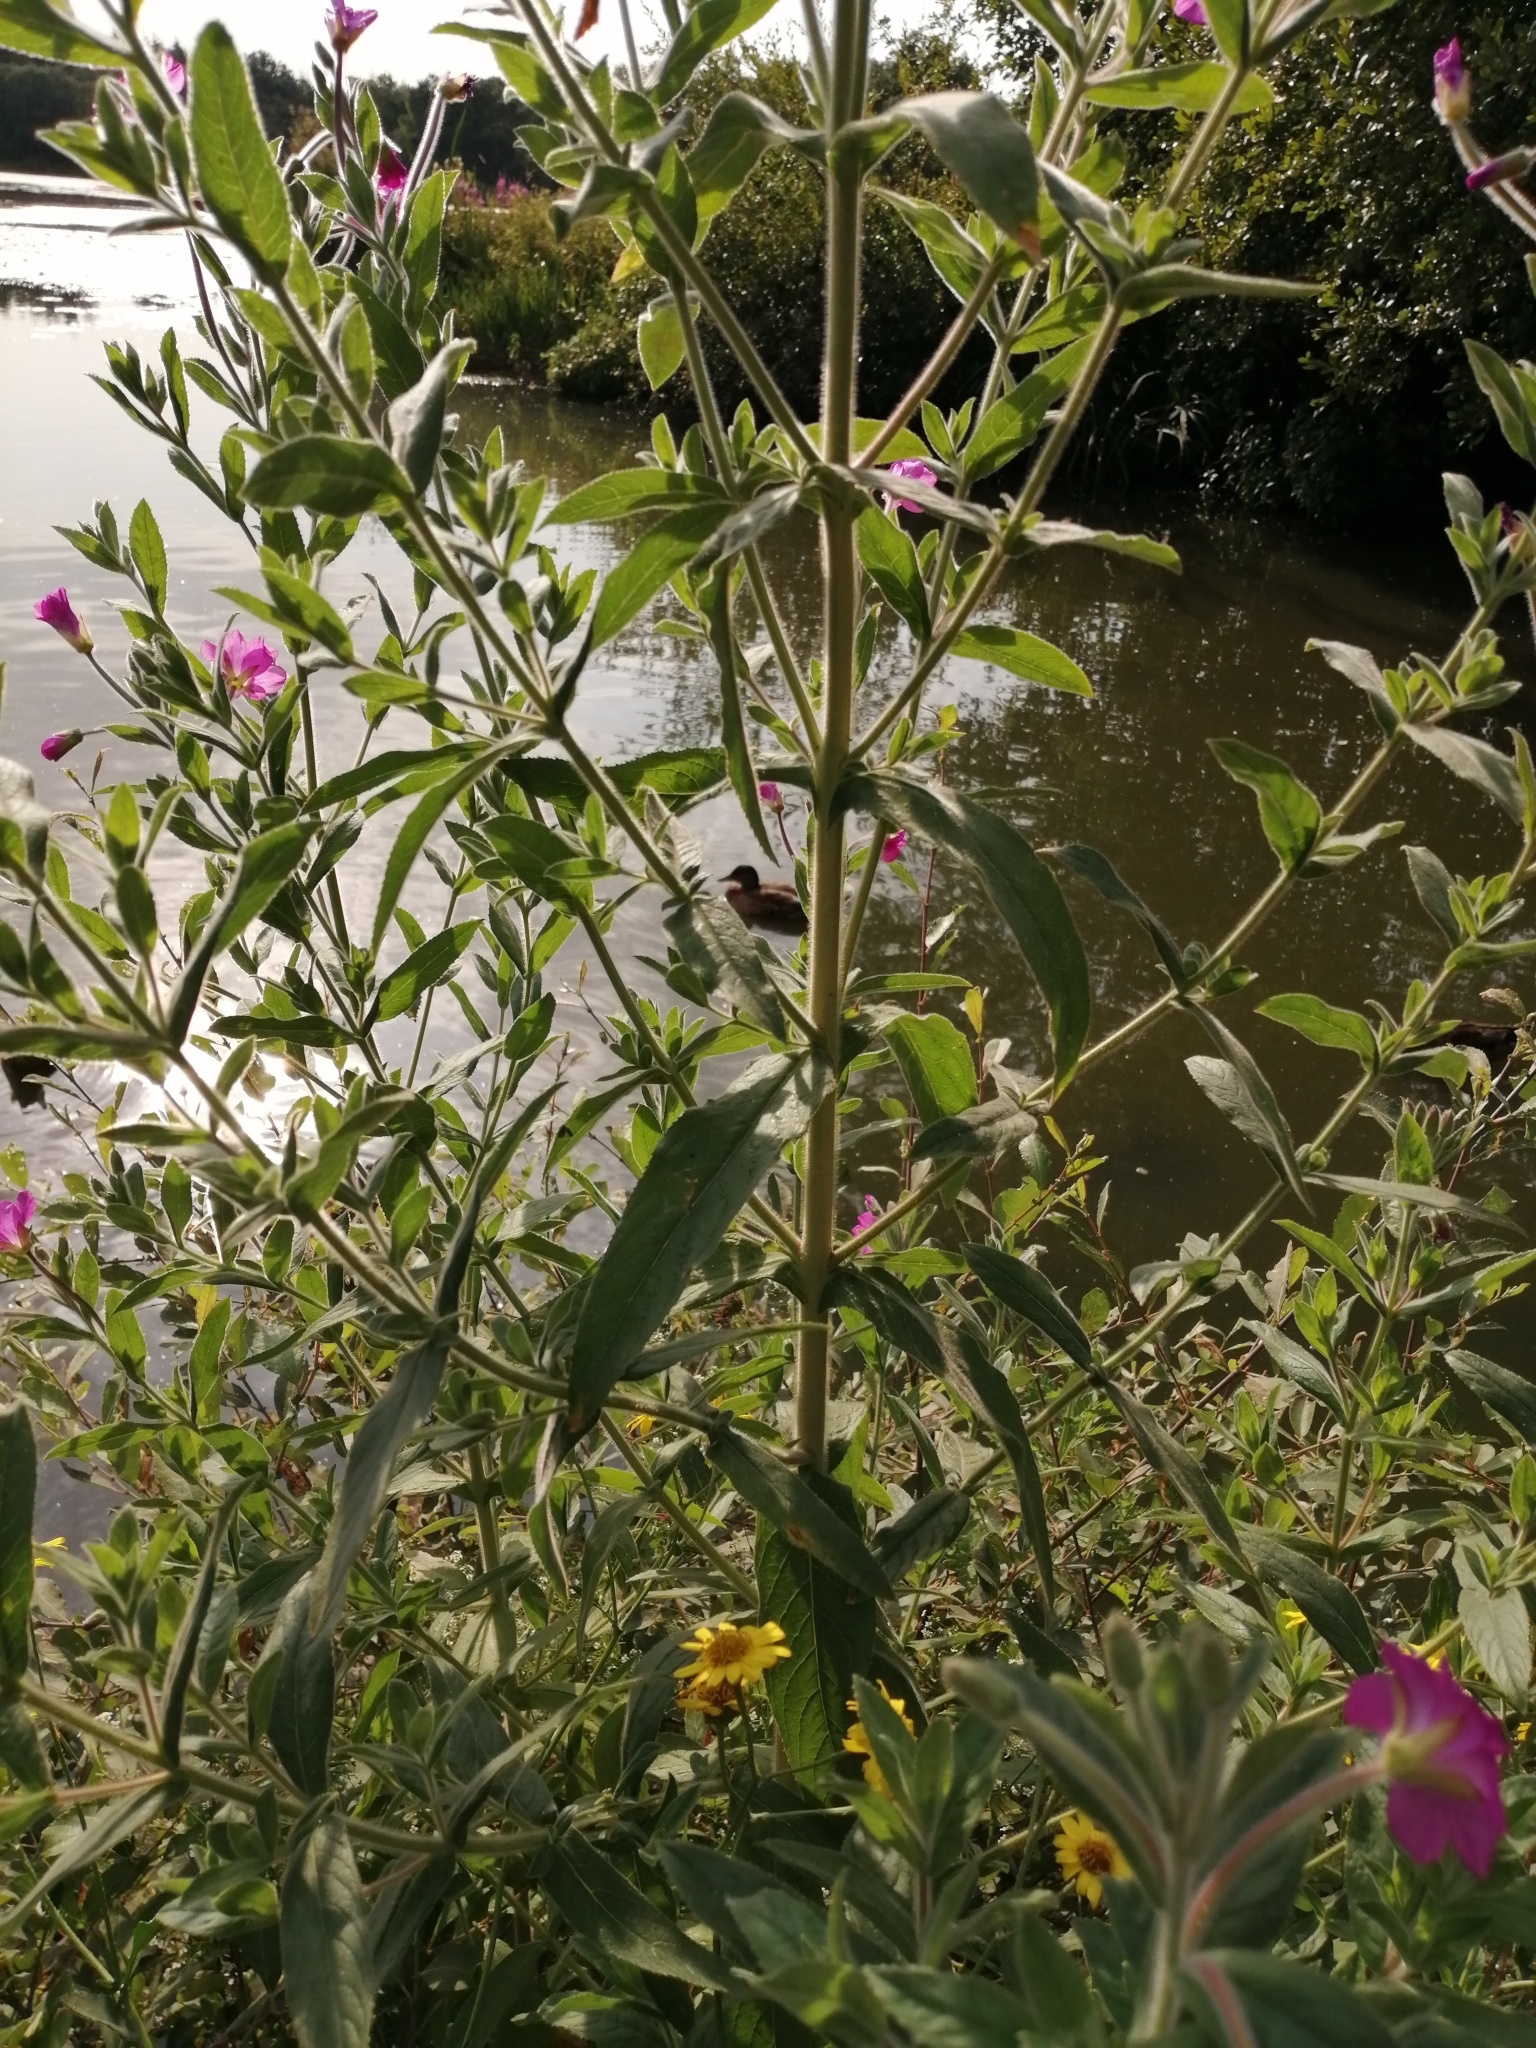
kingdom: Plantae
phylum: Tracheophyta
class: Magnoliopsida
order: Myrtales
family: Onagraceae
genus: Epilobium
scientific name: Epilobium hirsutum
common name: Great willowherb
